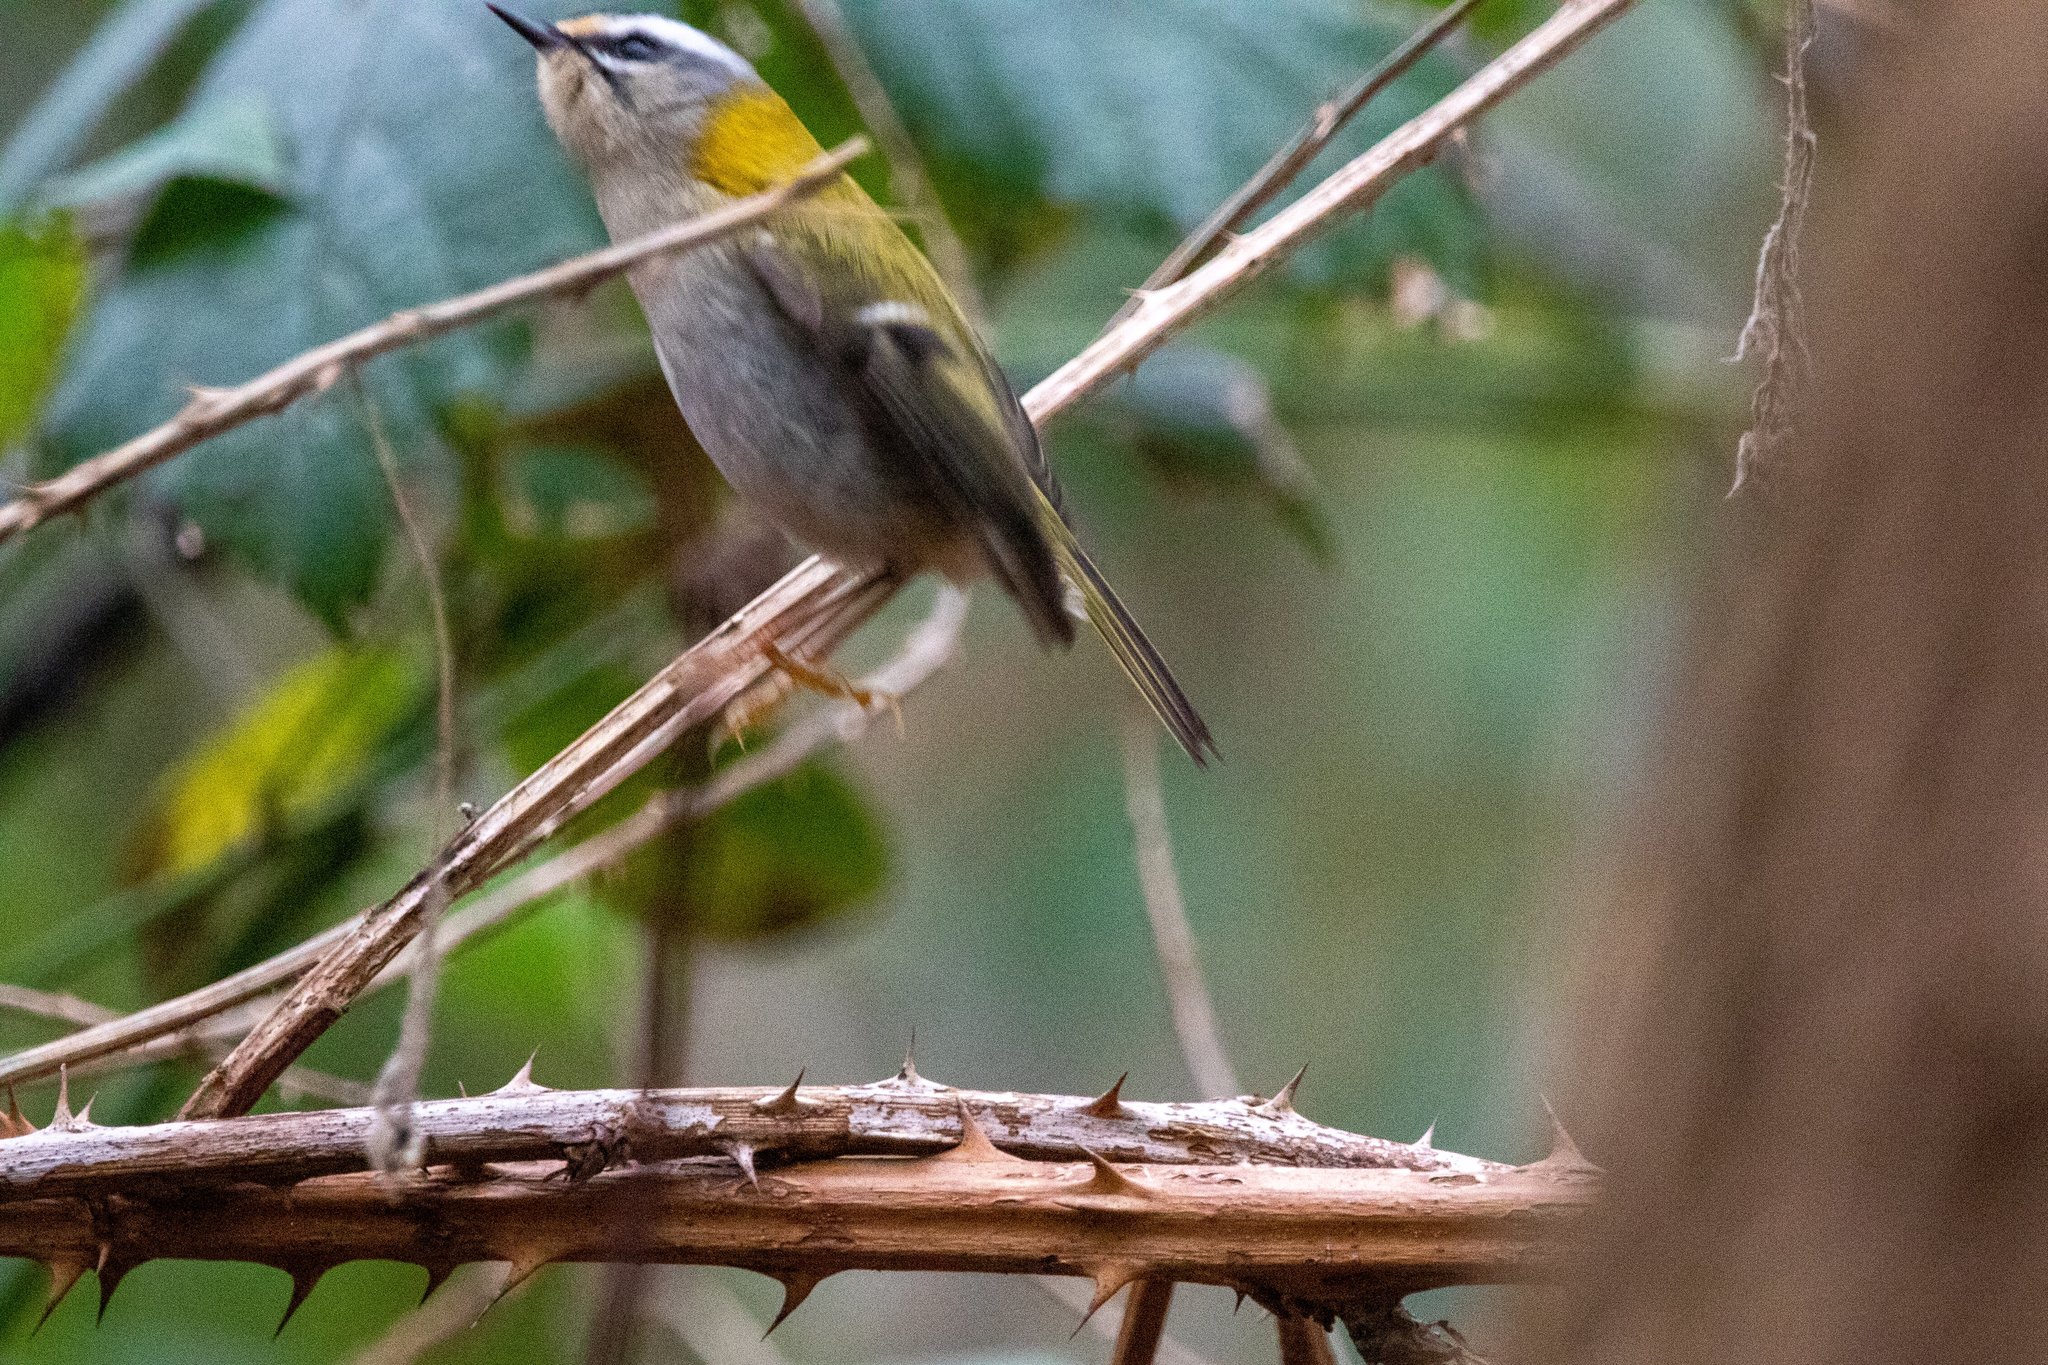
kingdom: Animalia
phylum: Chordata
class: Aves
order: Passeriformes
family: Regulidae
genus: Regulus
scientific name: Regulus ignicapilla
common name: Firecrest
